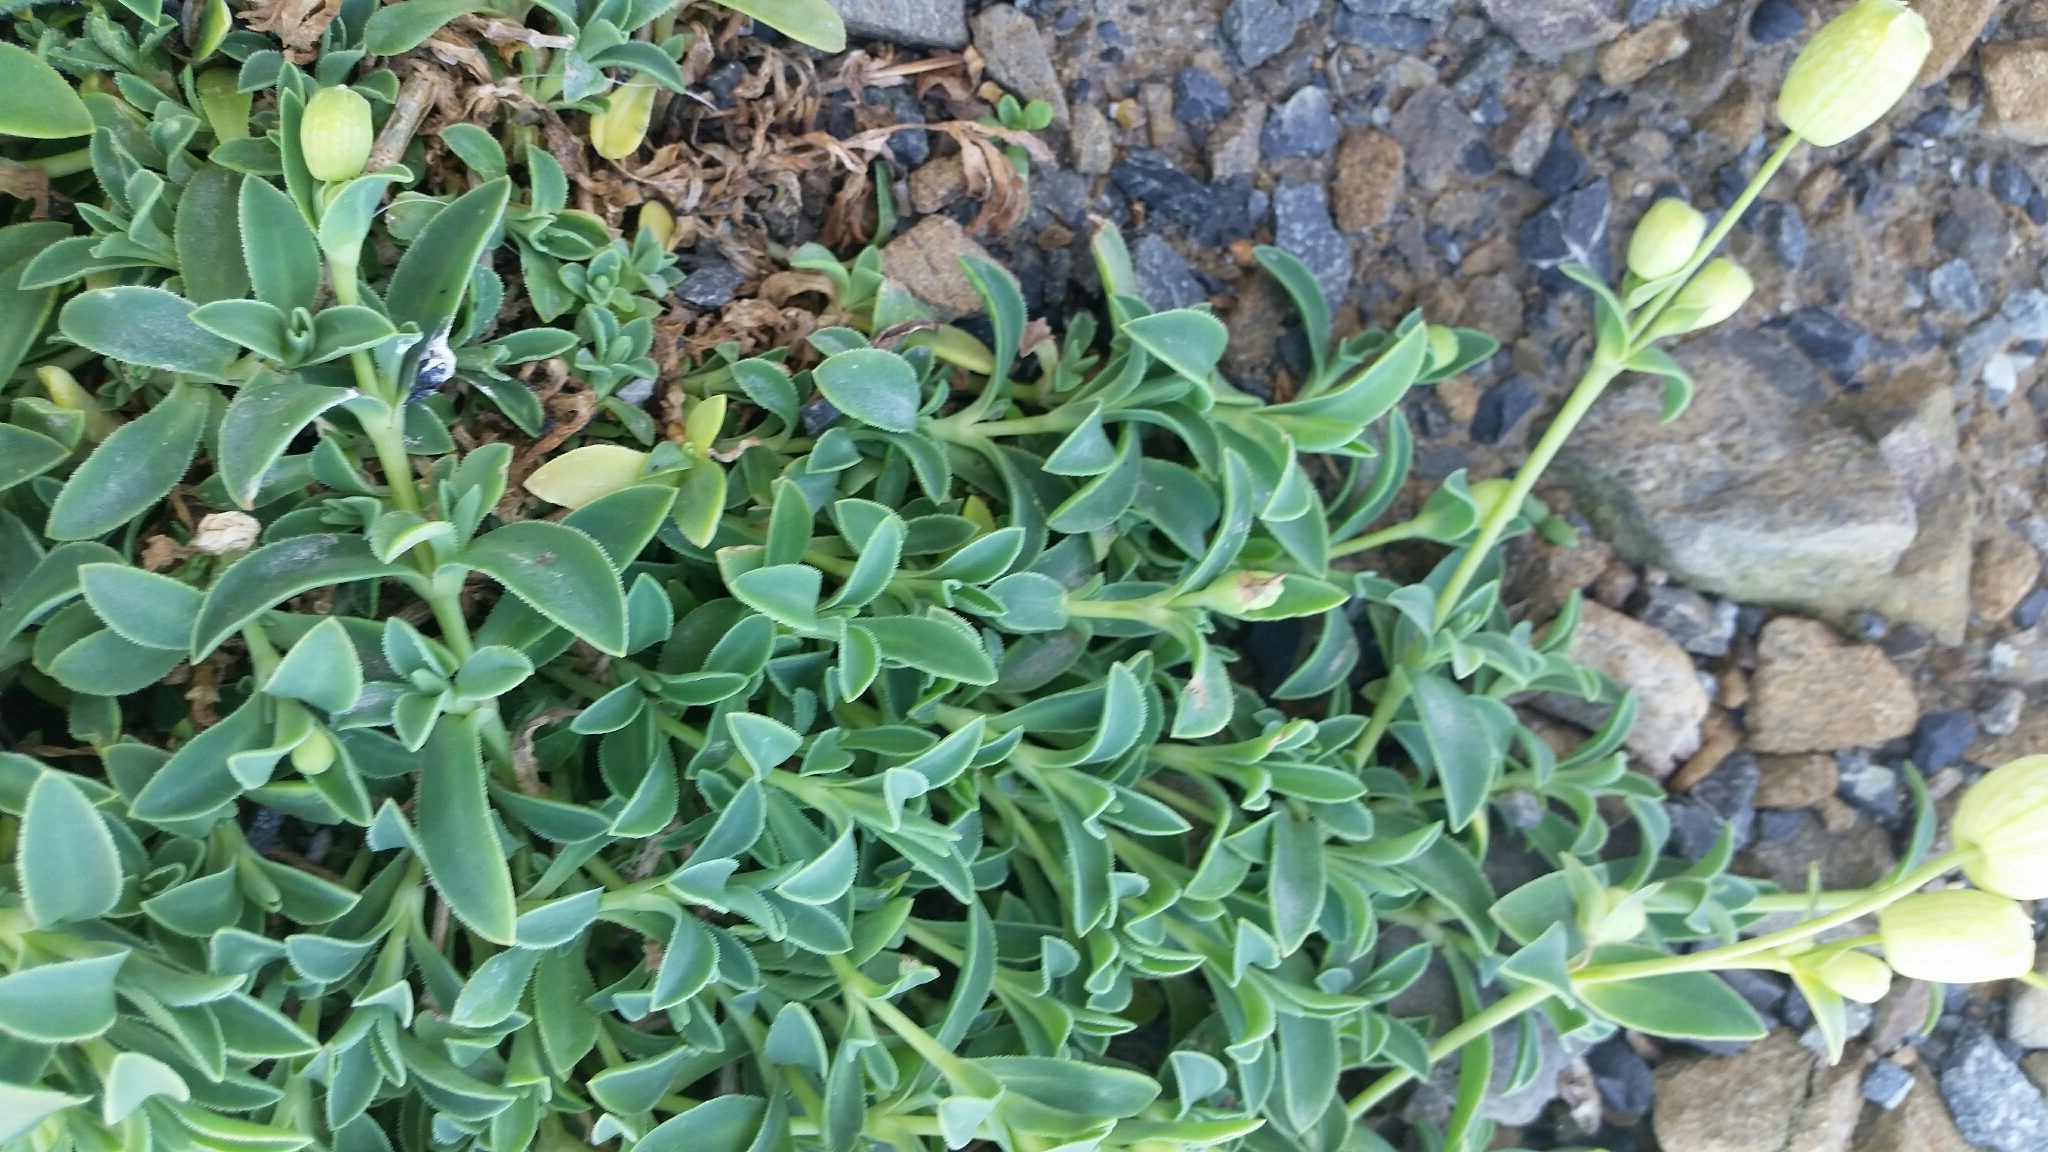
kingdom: Plantae
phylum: Tracheophyta
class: Magnoliopsida
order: Caryophyllales
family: Caryophyllaceae
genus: Silene
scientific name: Silene vulgaris
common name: Bladder campion
